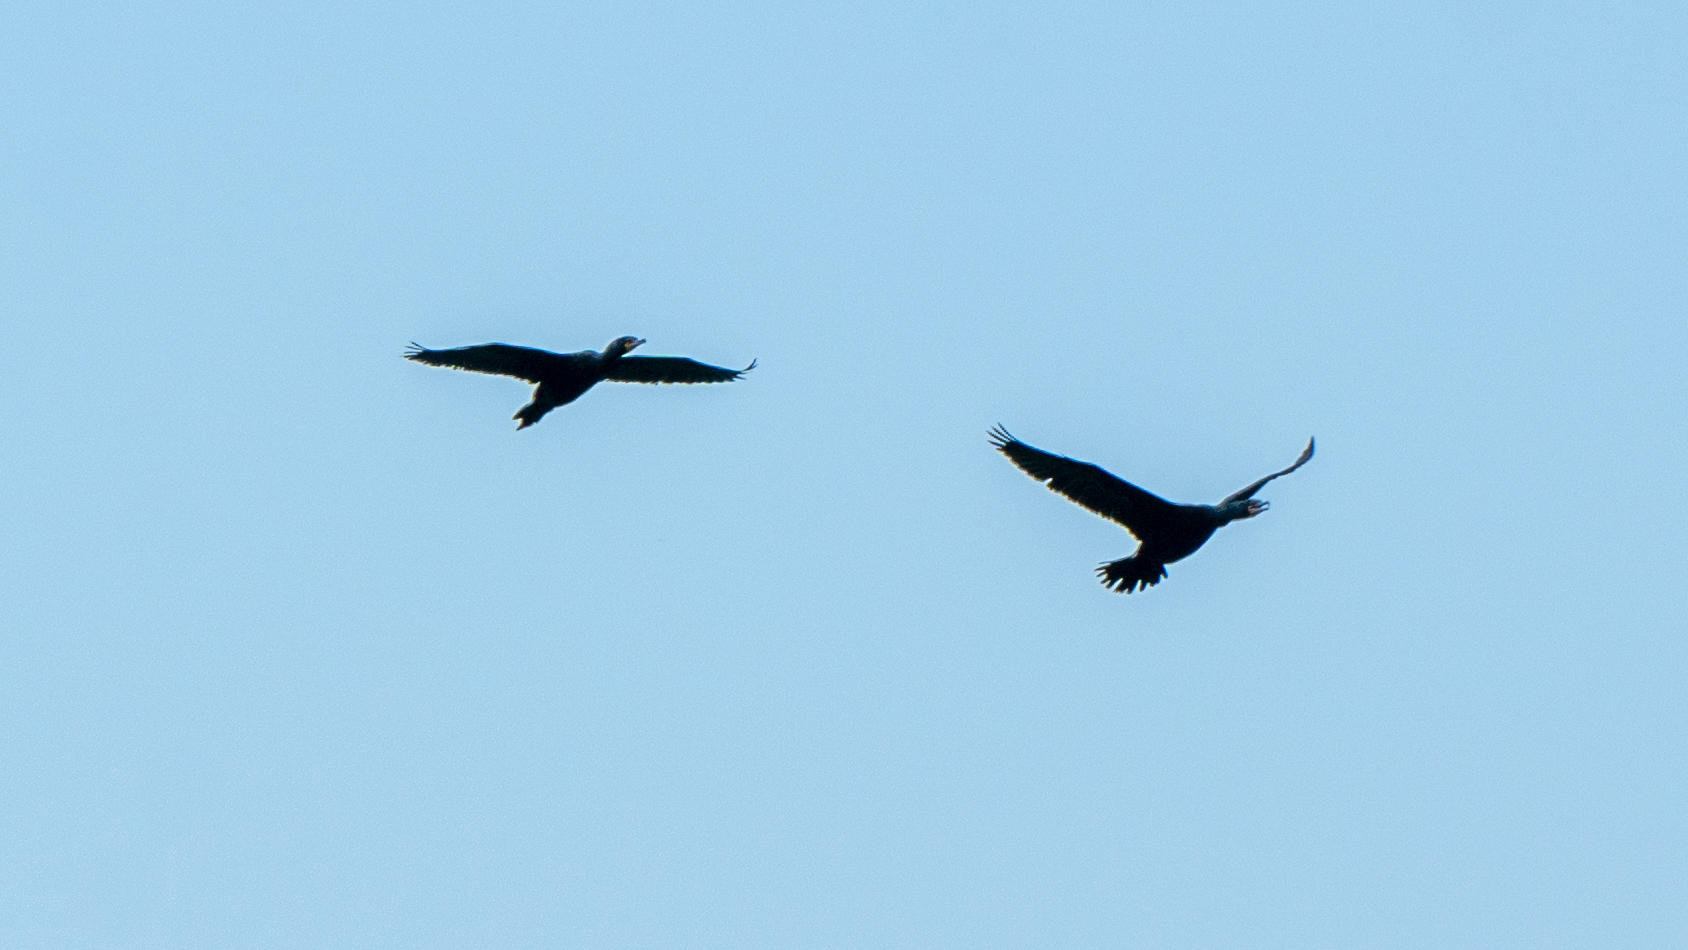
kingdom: Animalia
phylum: Chordata
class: Aves
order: Suliformes
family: Phalacrocoracidae
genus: Phalacrocorax
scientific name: Phalacrocorax auritus
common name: Double-crested cormorant
